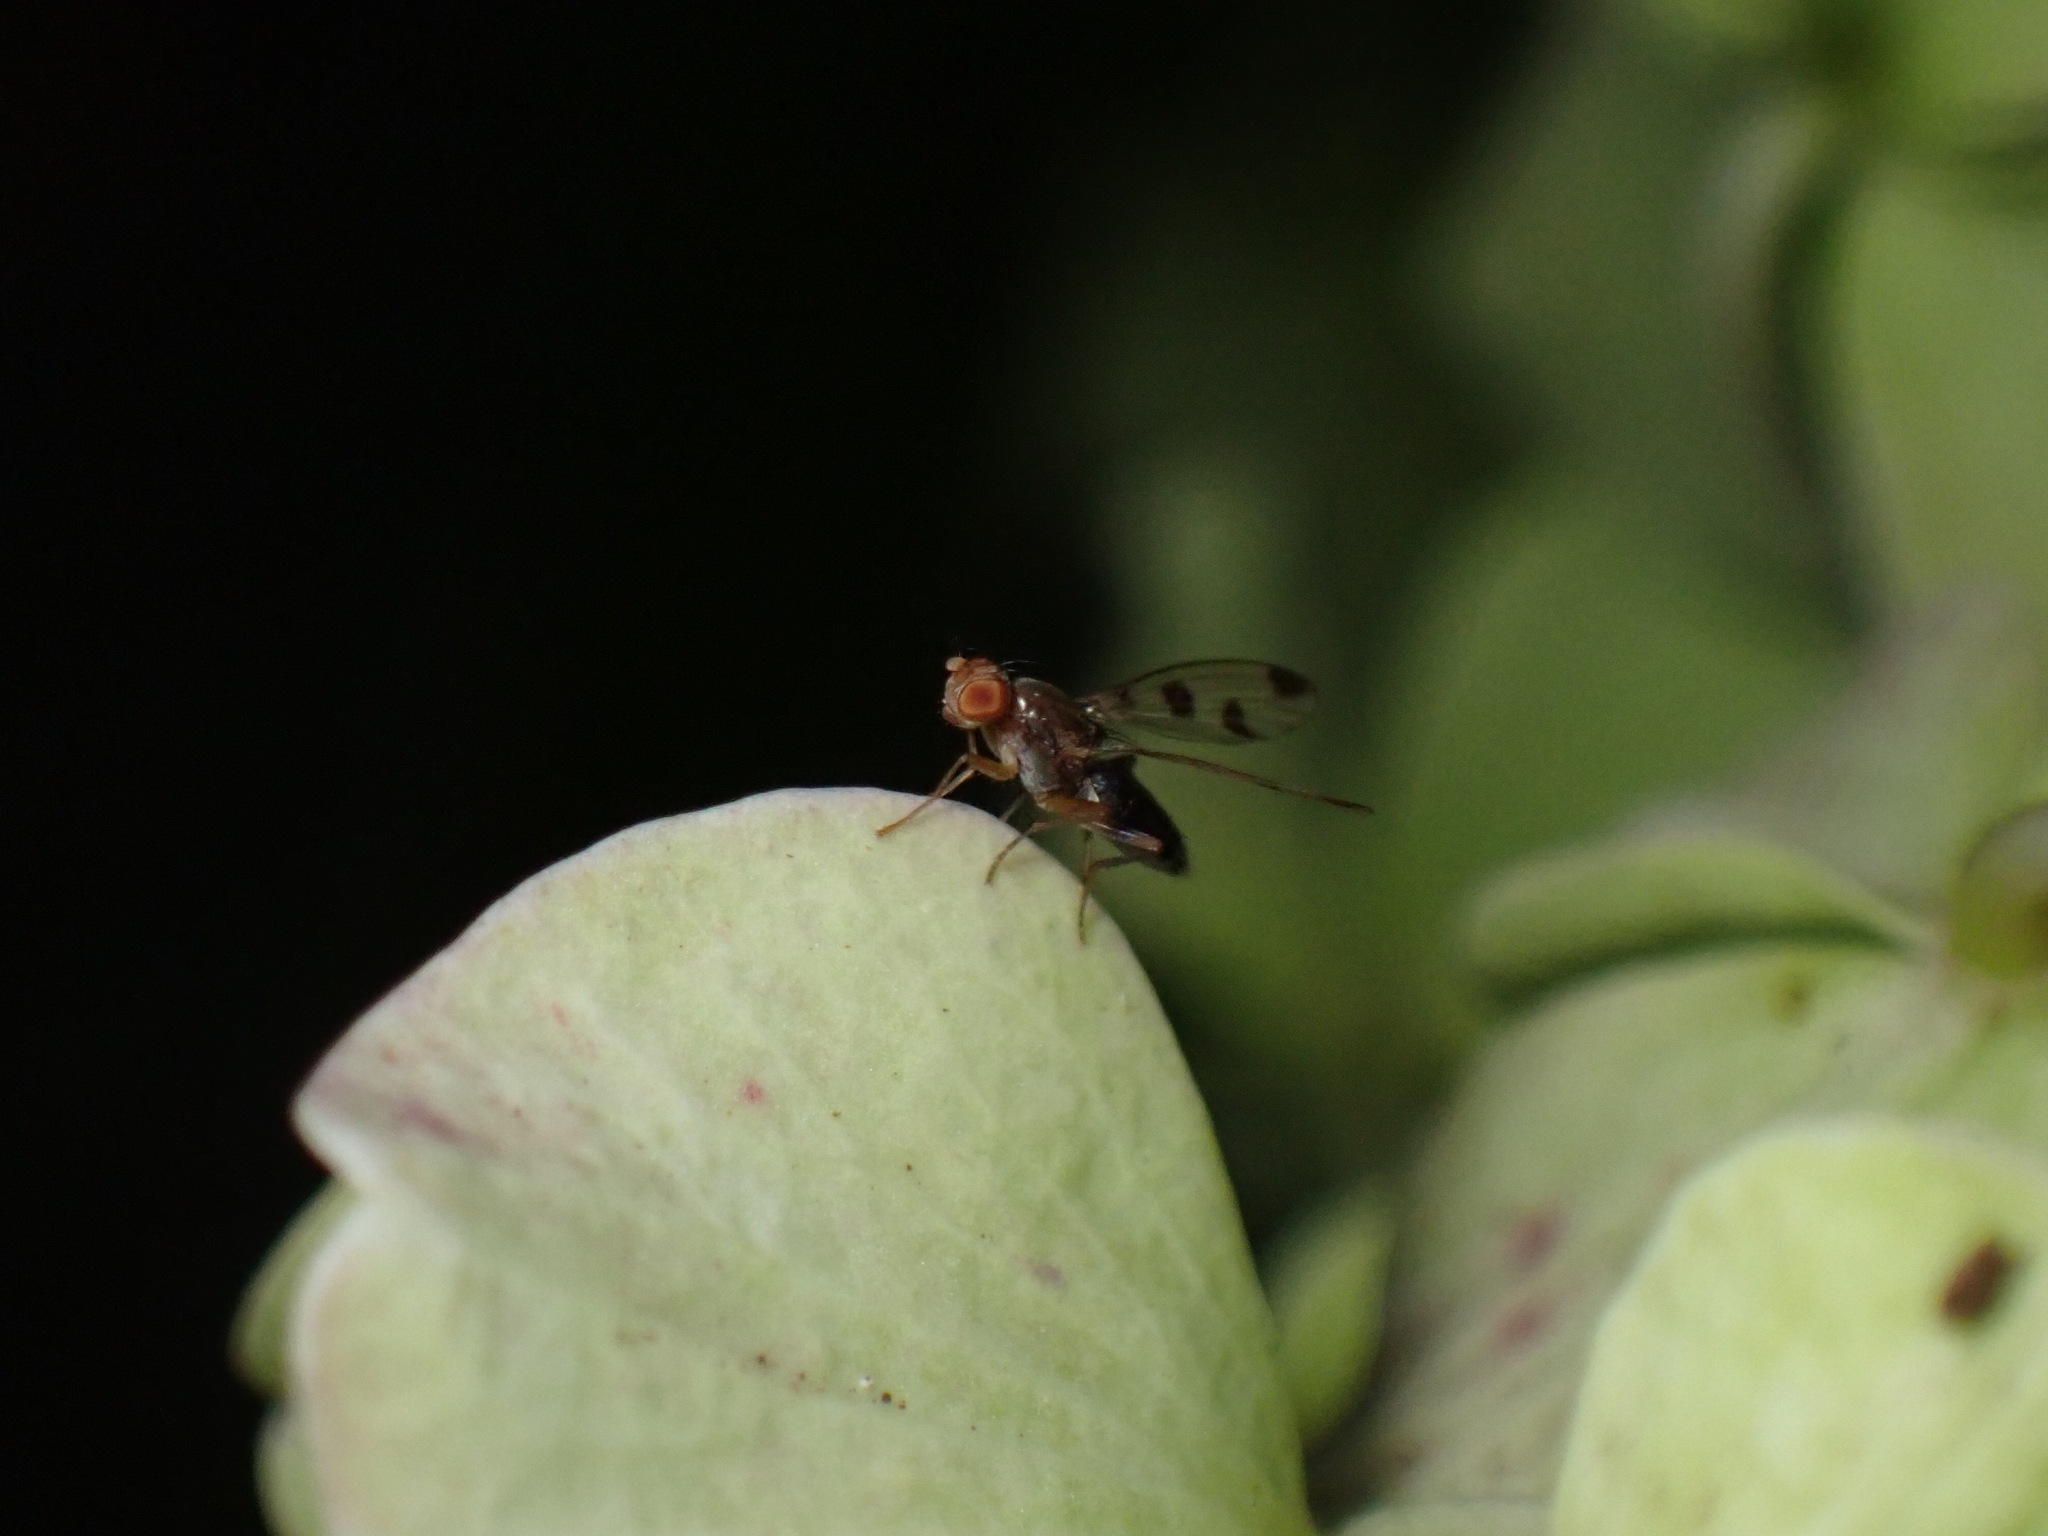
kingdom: Animalia
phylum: Arthropoda
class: Insecta
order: Diptera
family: Opomyzidae
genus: Geomyza
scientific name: Geomyza tripunctata
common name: Cereal fly
